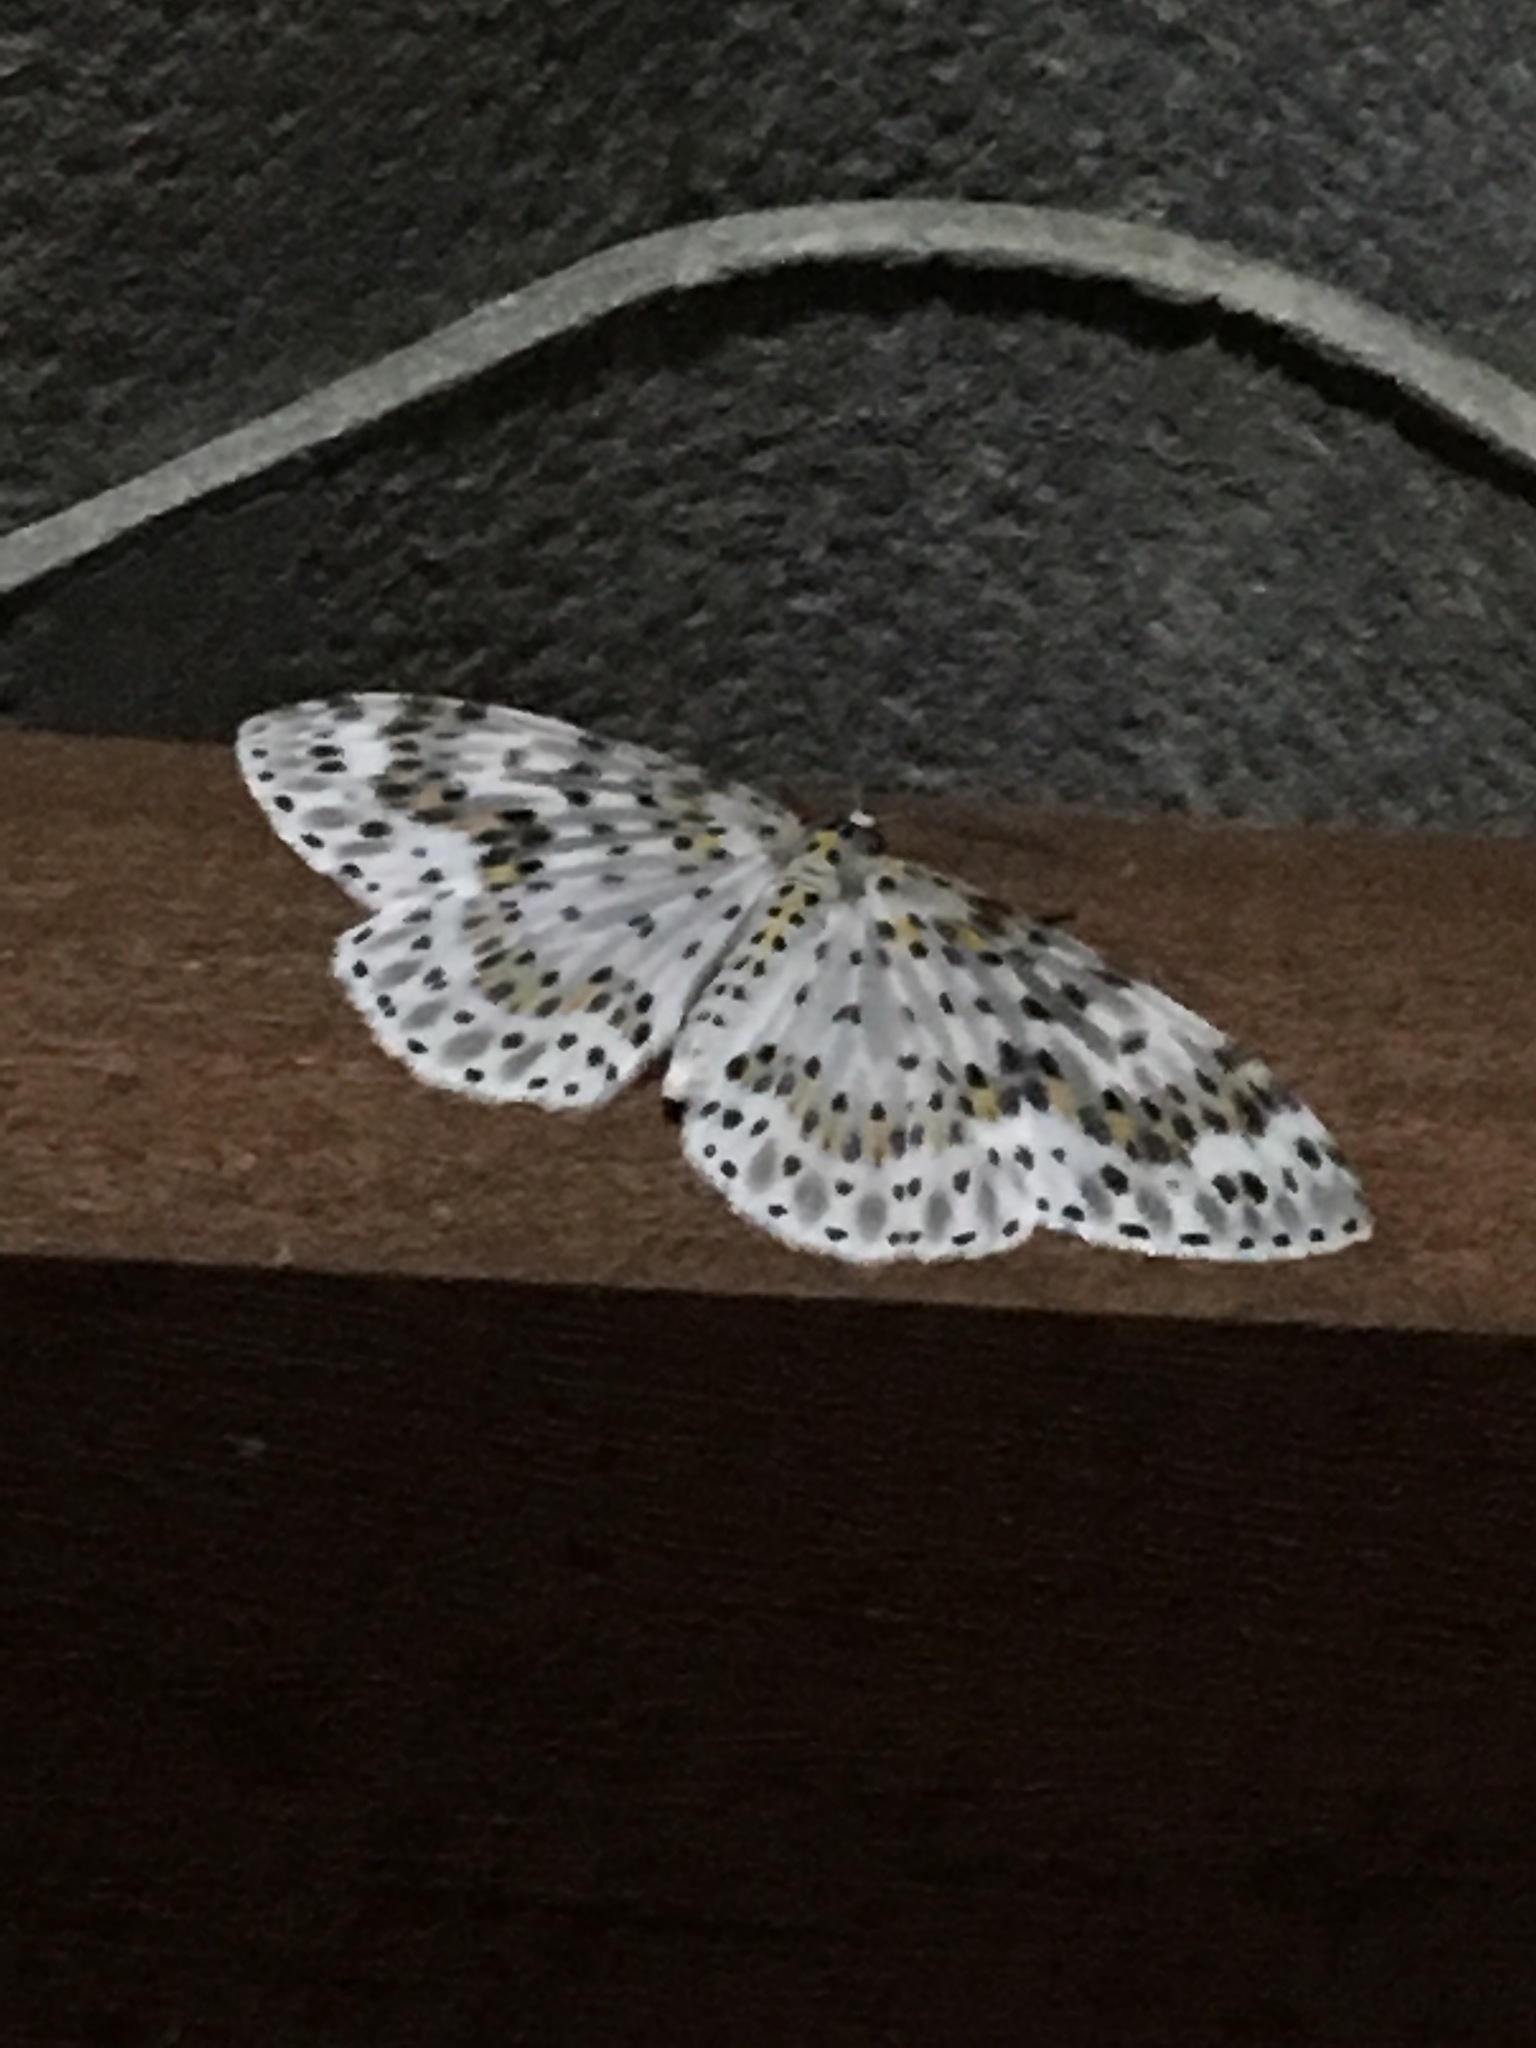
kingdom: Animalia
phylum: Arthropoda
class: Insecta
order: Lepidoptera
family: Geometridae
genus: Metapercnia
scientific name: Metapercnia ductaria
